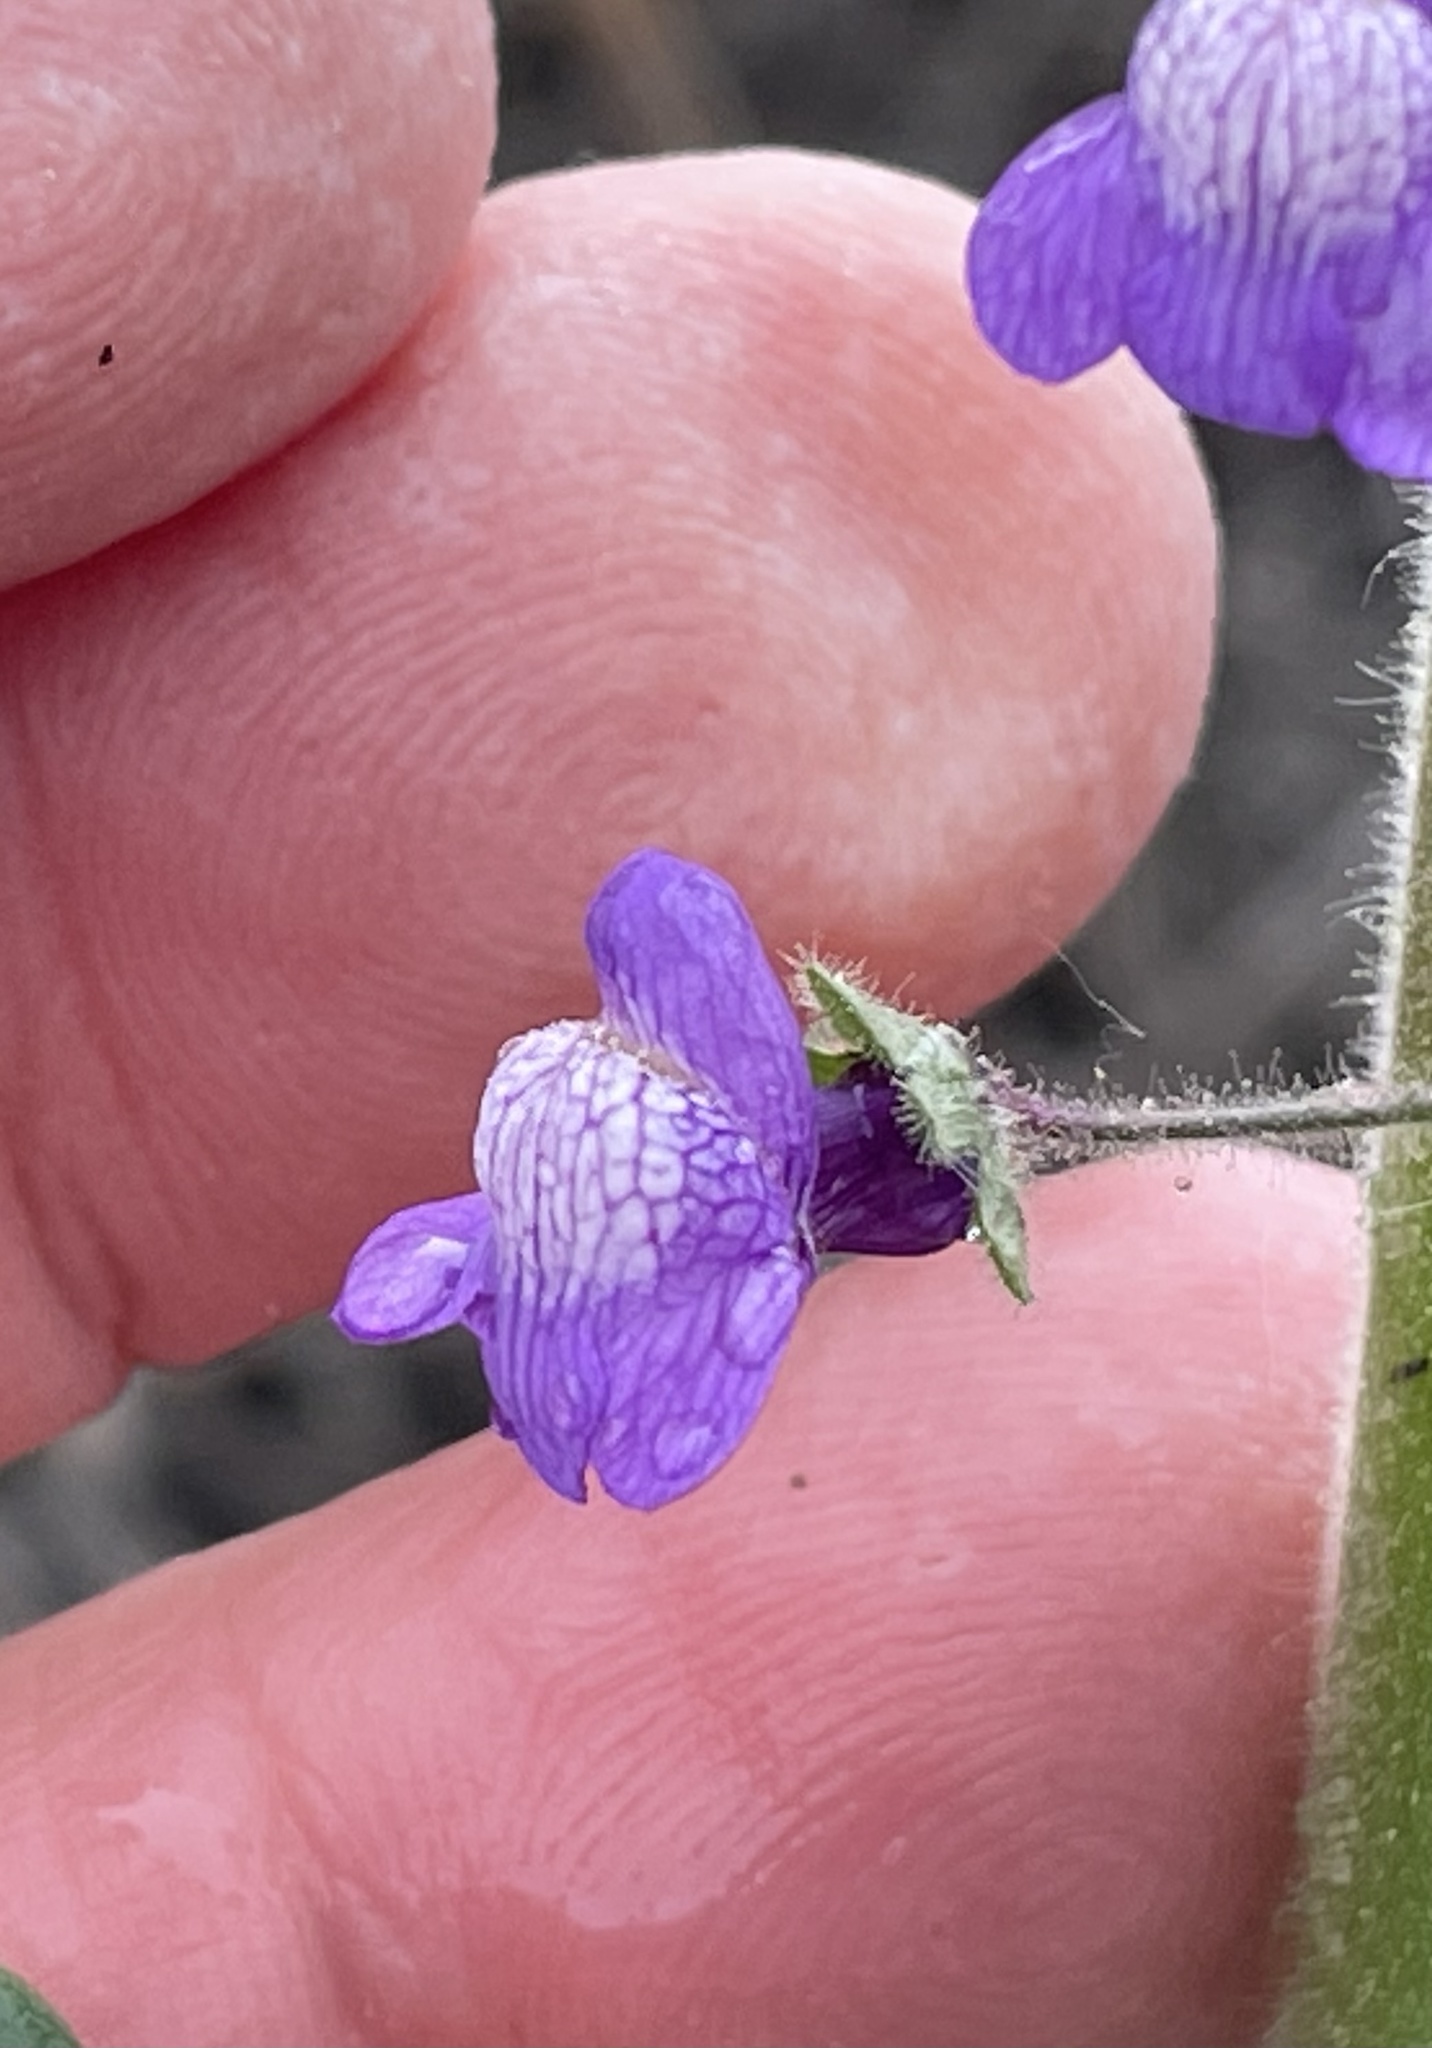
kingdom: Plantae
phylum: Tracheophyta
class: Magnoliopsida
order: Lamiales
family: Plantaginaceae
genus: Sairocarpus
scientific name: Sairocarpus nuttallianus
